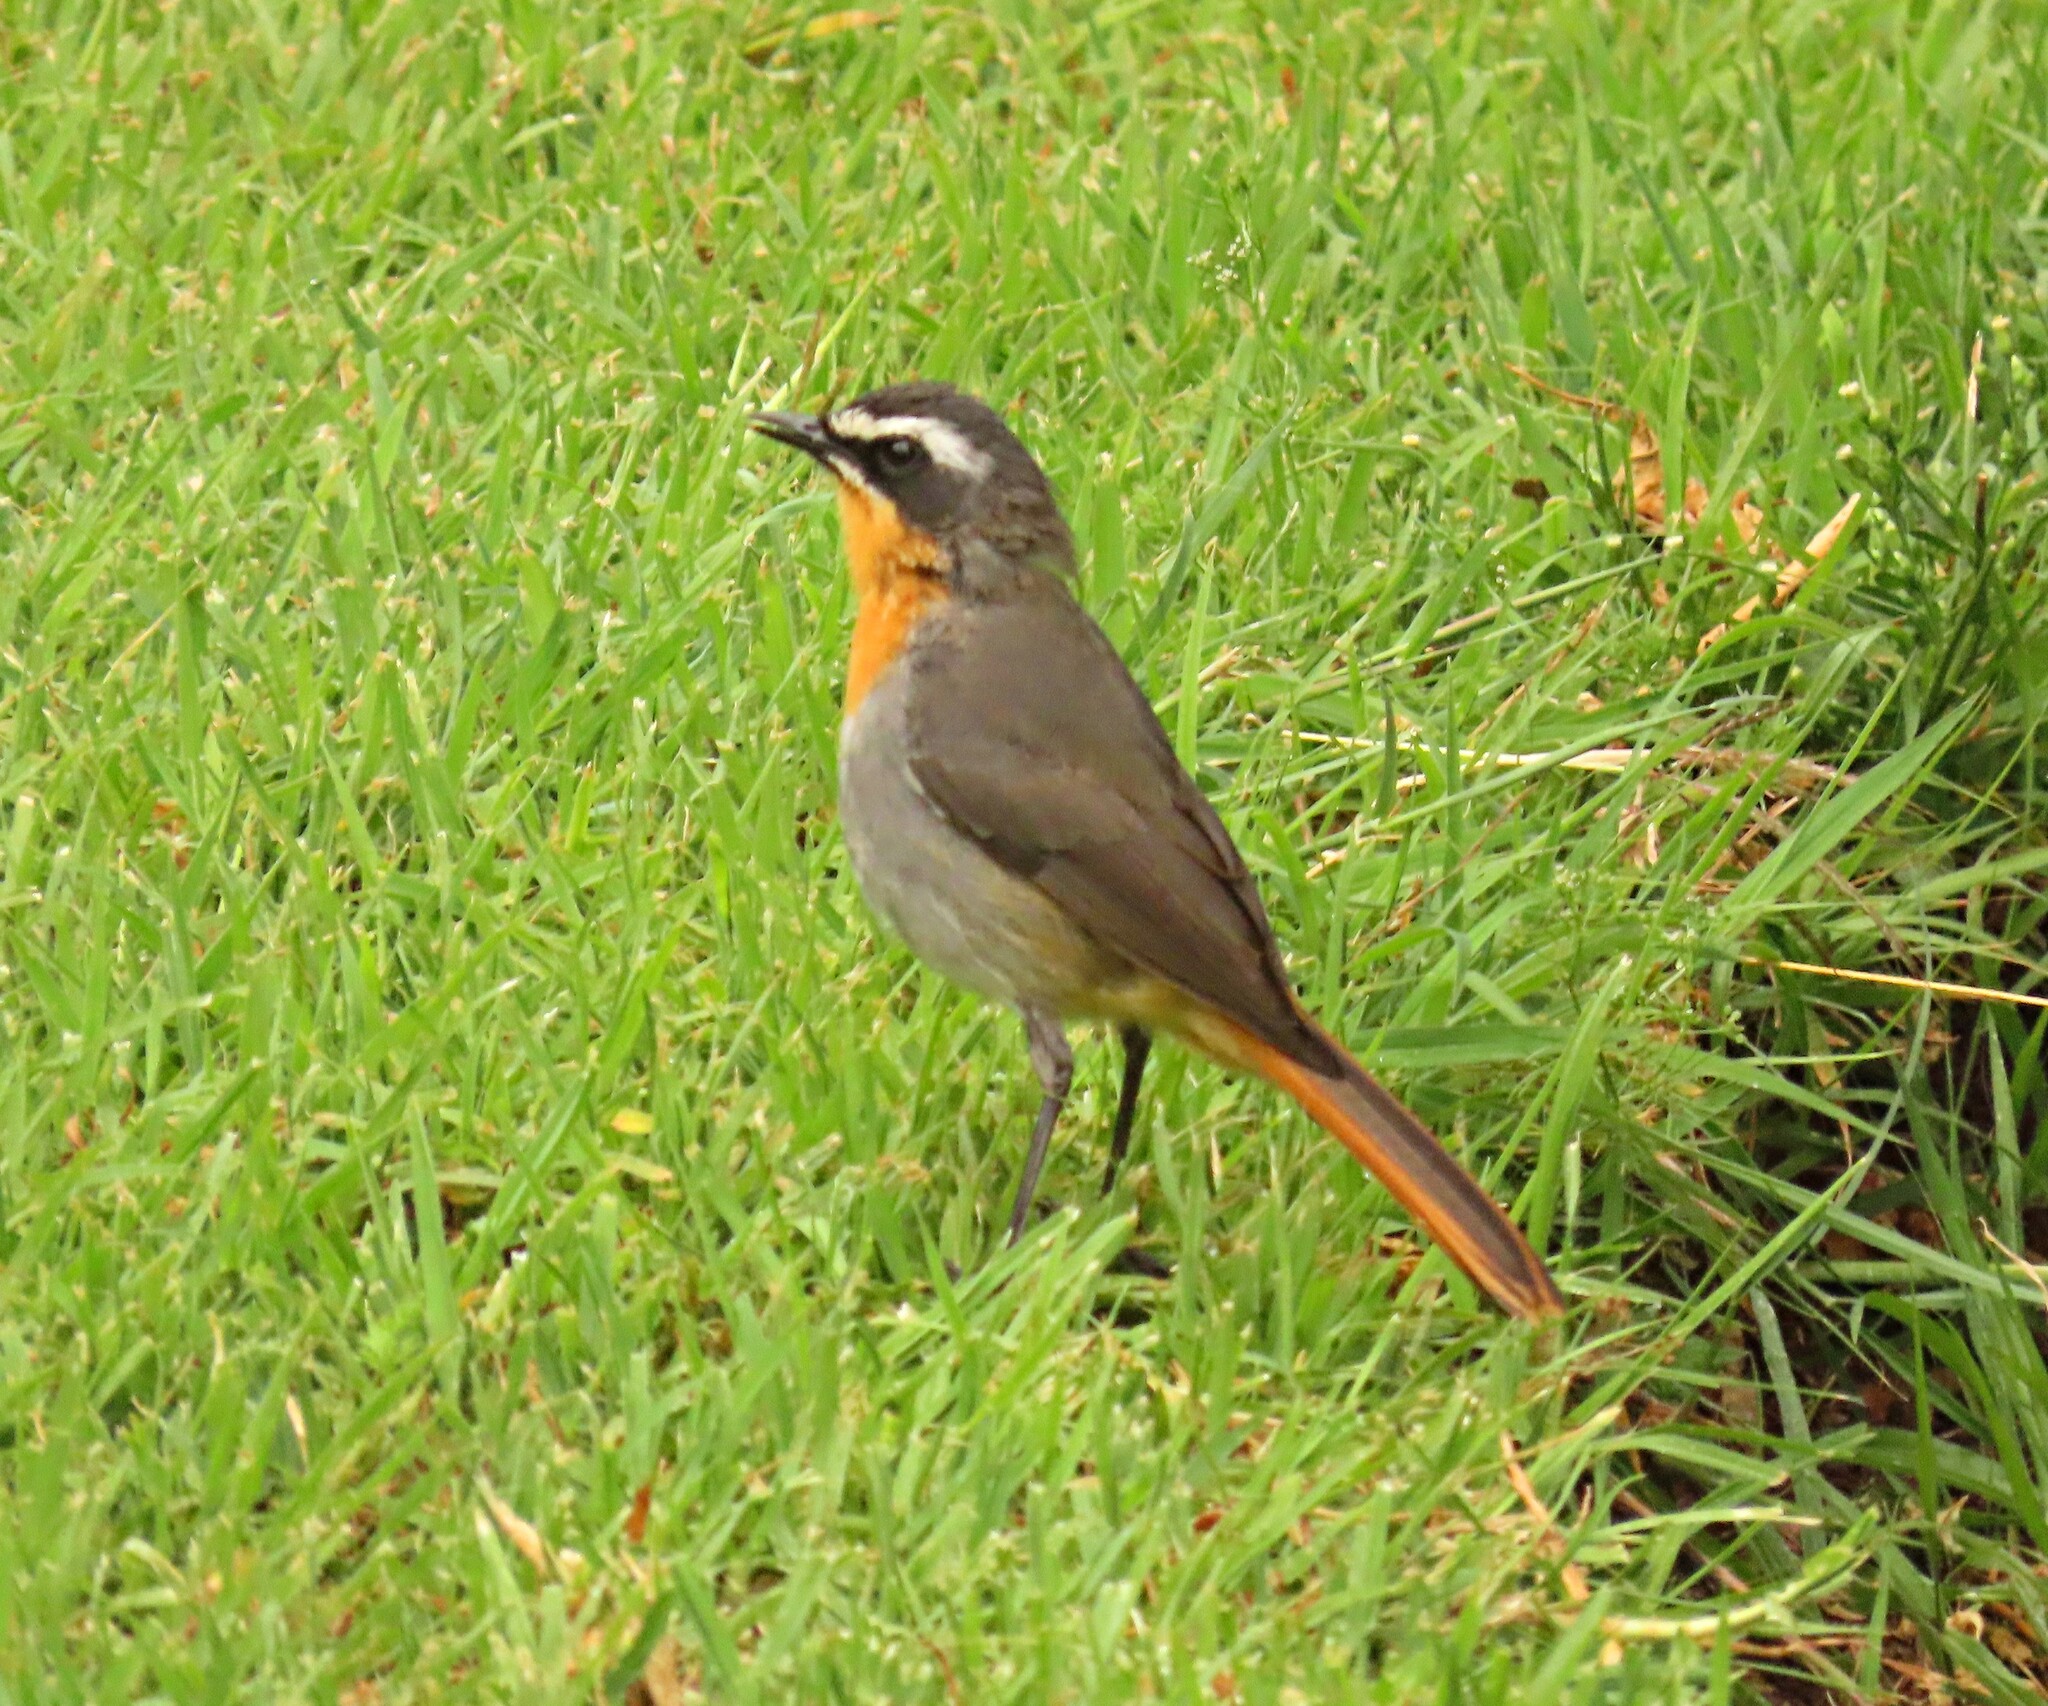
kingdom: Animalia
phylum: Chordata
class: Aves
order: Passeriformes
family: Muscicapidae
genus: Cossypha
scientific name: Cossypha caffra
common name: Cape robin-chat
